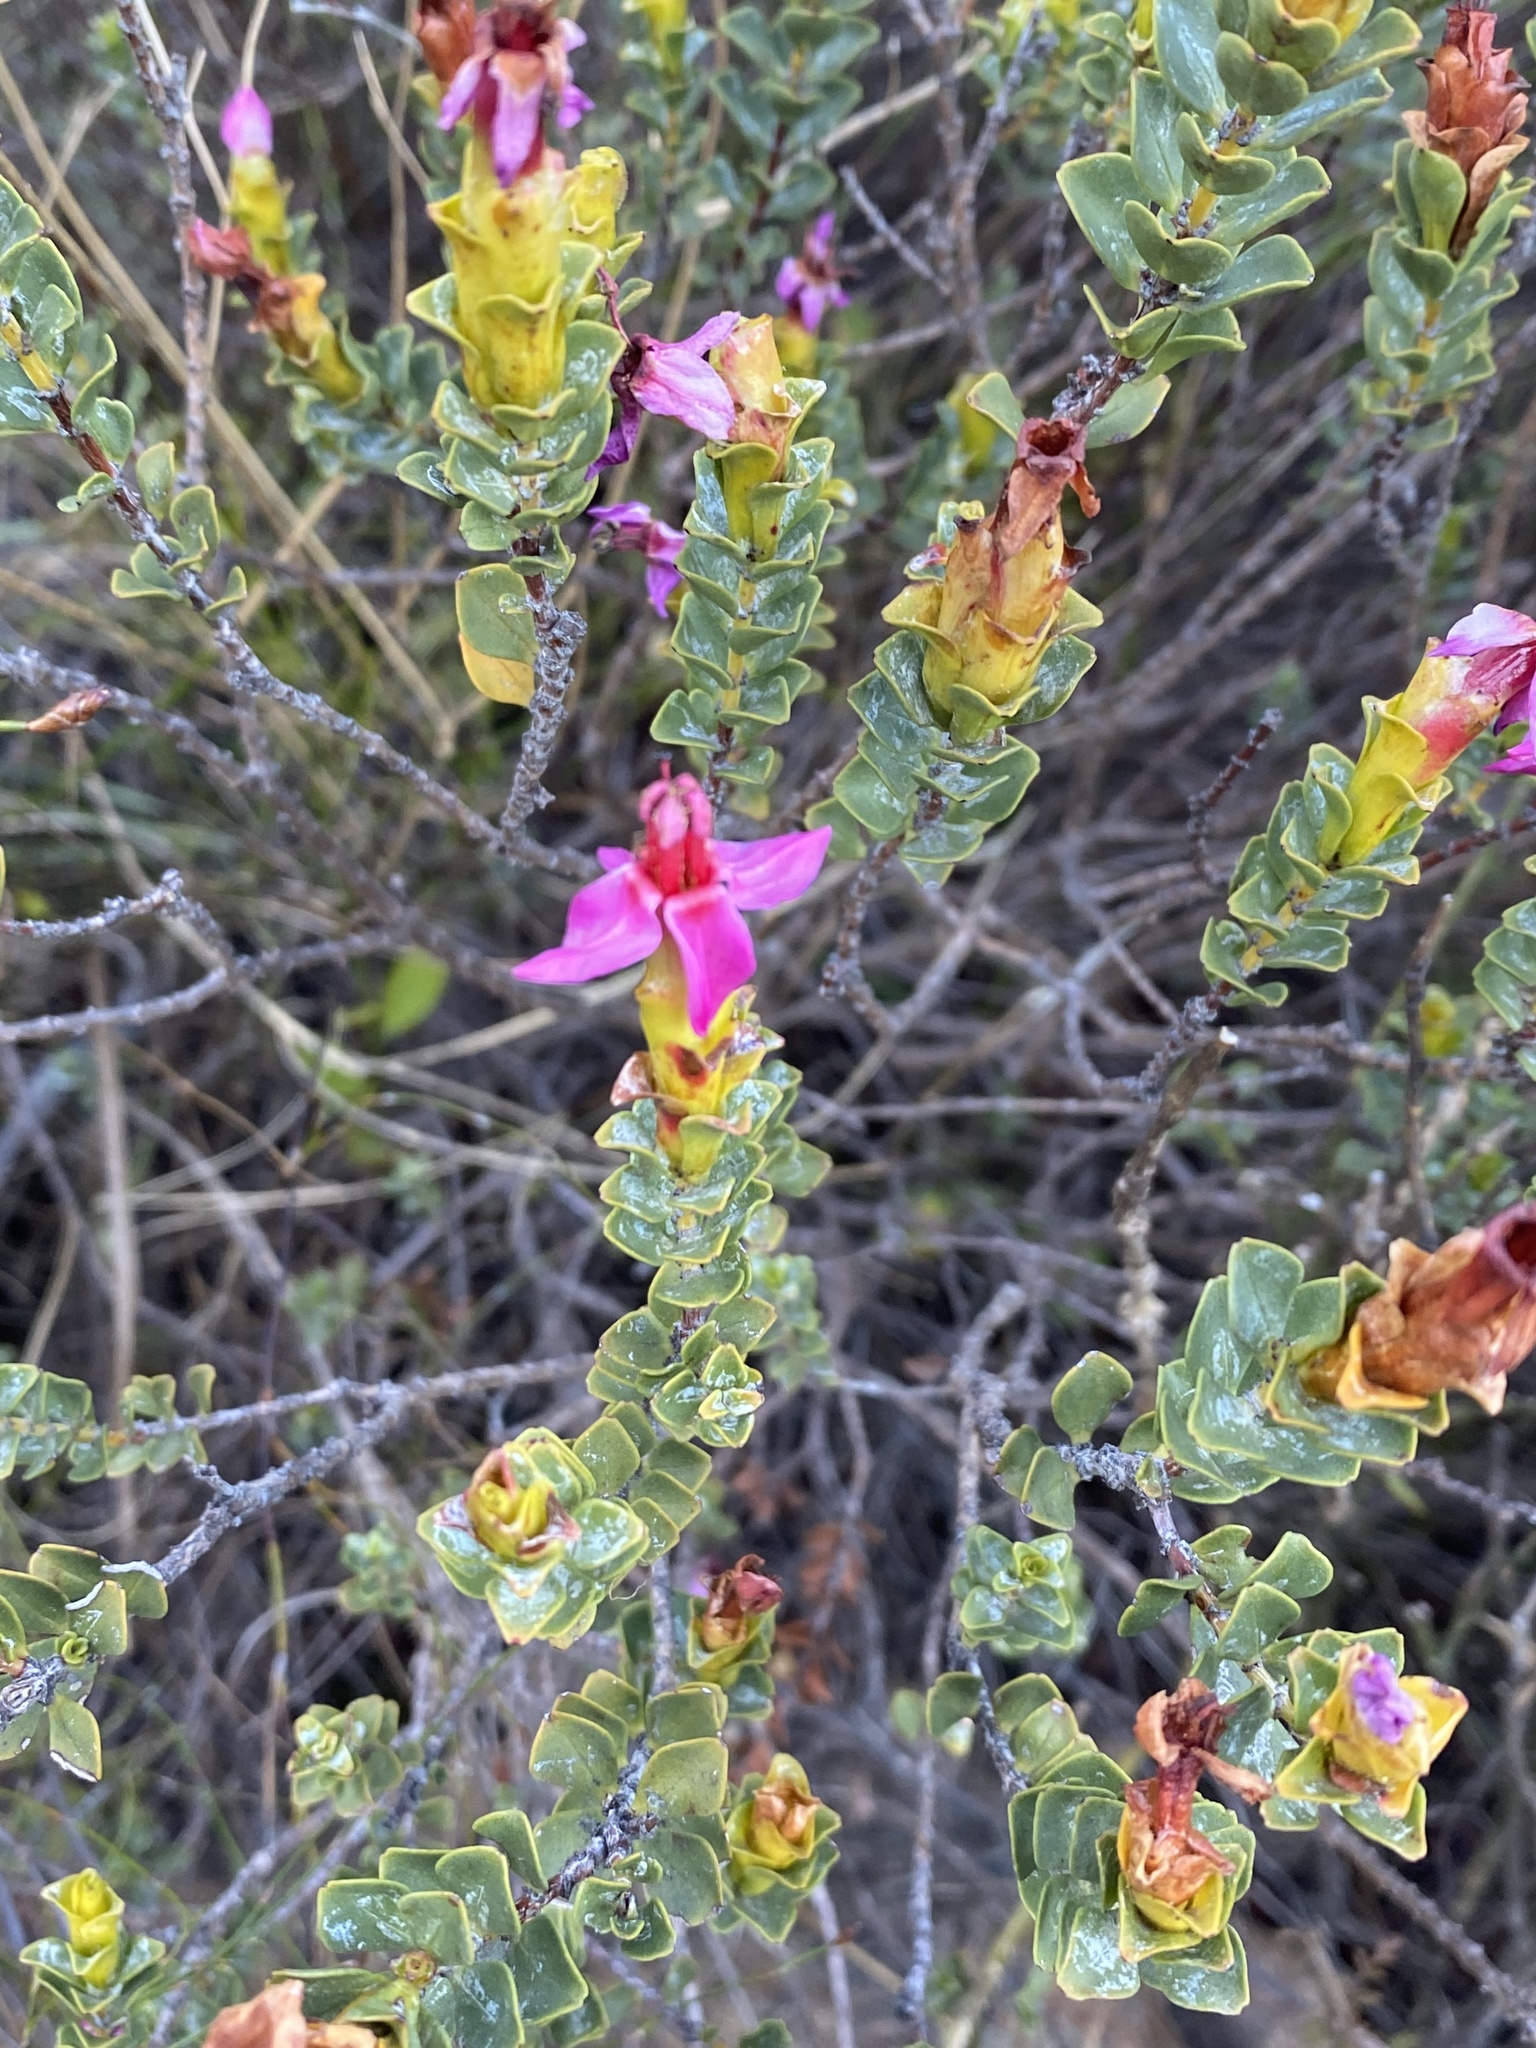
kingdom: Plantae
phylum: Tracheophyta
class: Magnoliopsida
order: Myrtales
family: Penaeaceae
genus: Saltera
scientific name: Saltera sarcocolla
